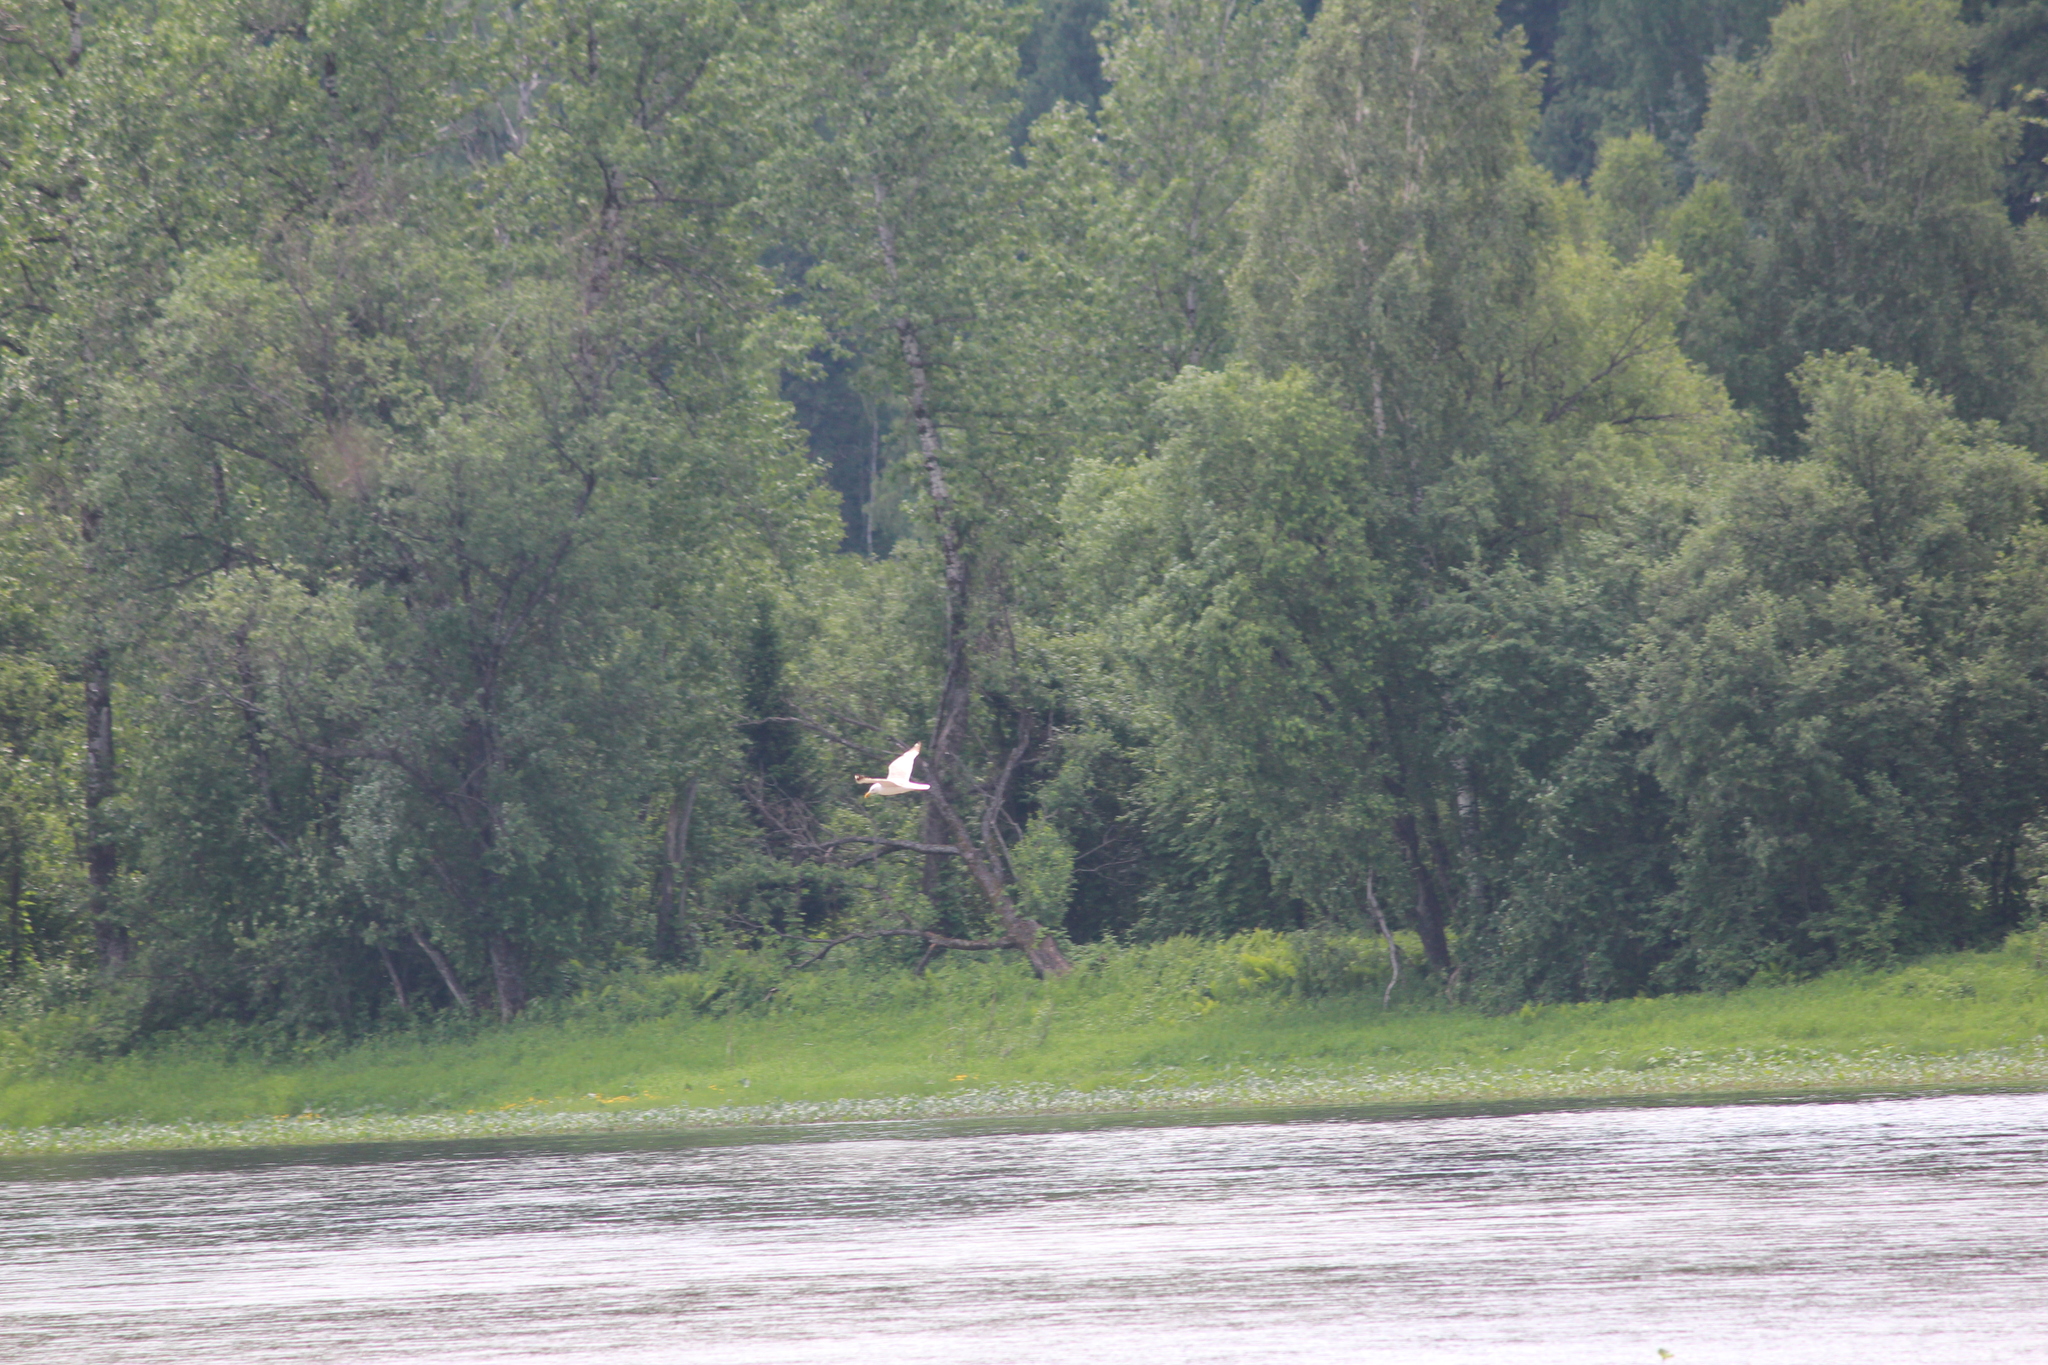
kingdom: Animalia
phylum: Chordata
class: Aves
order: Charadriiformes
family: Laridae
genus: Larus
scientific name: Larus fuscus
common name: Lesser black-backed gull
